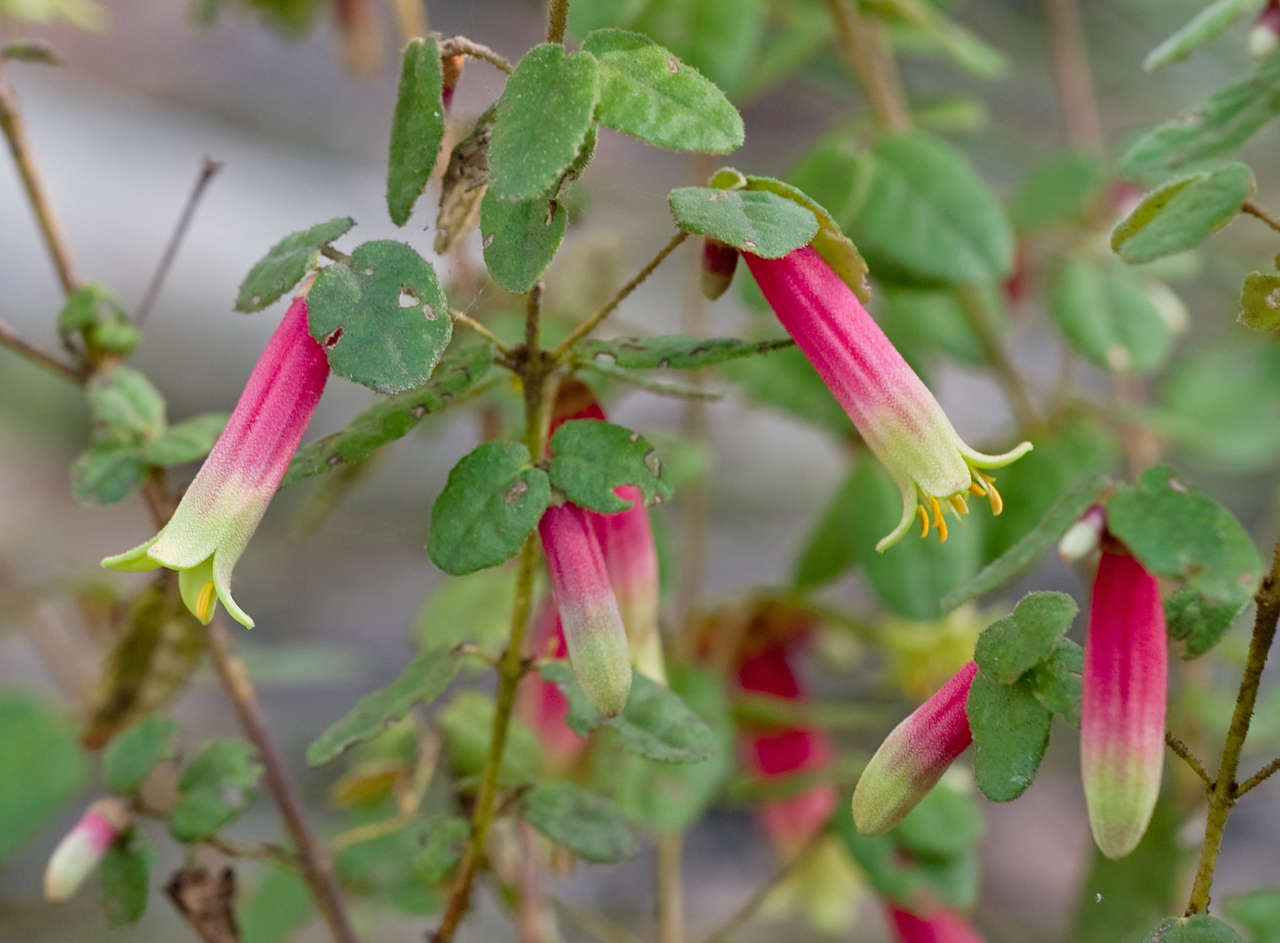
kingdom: Plantae
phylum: Tracheophyta
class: Magnoliopsida
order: Sapindales
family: Rutaceae
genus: Correa
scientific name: Correa reflexa
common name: Common correa
